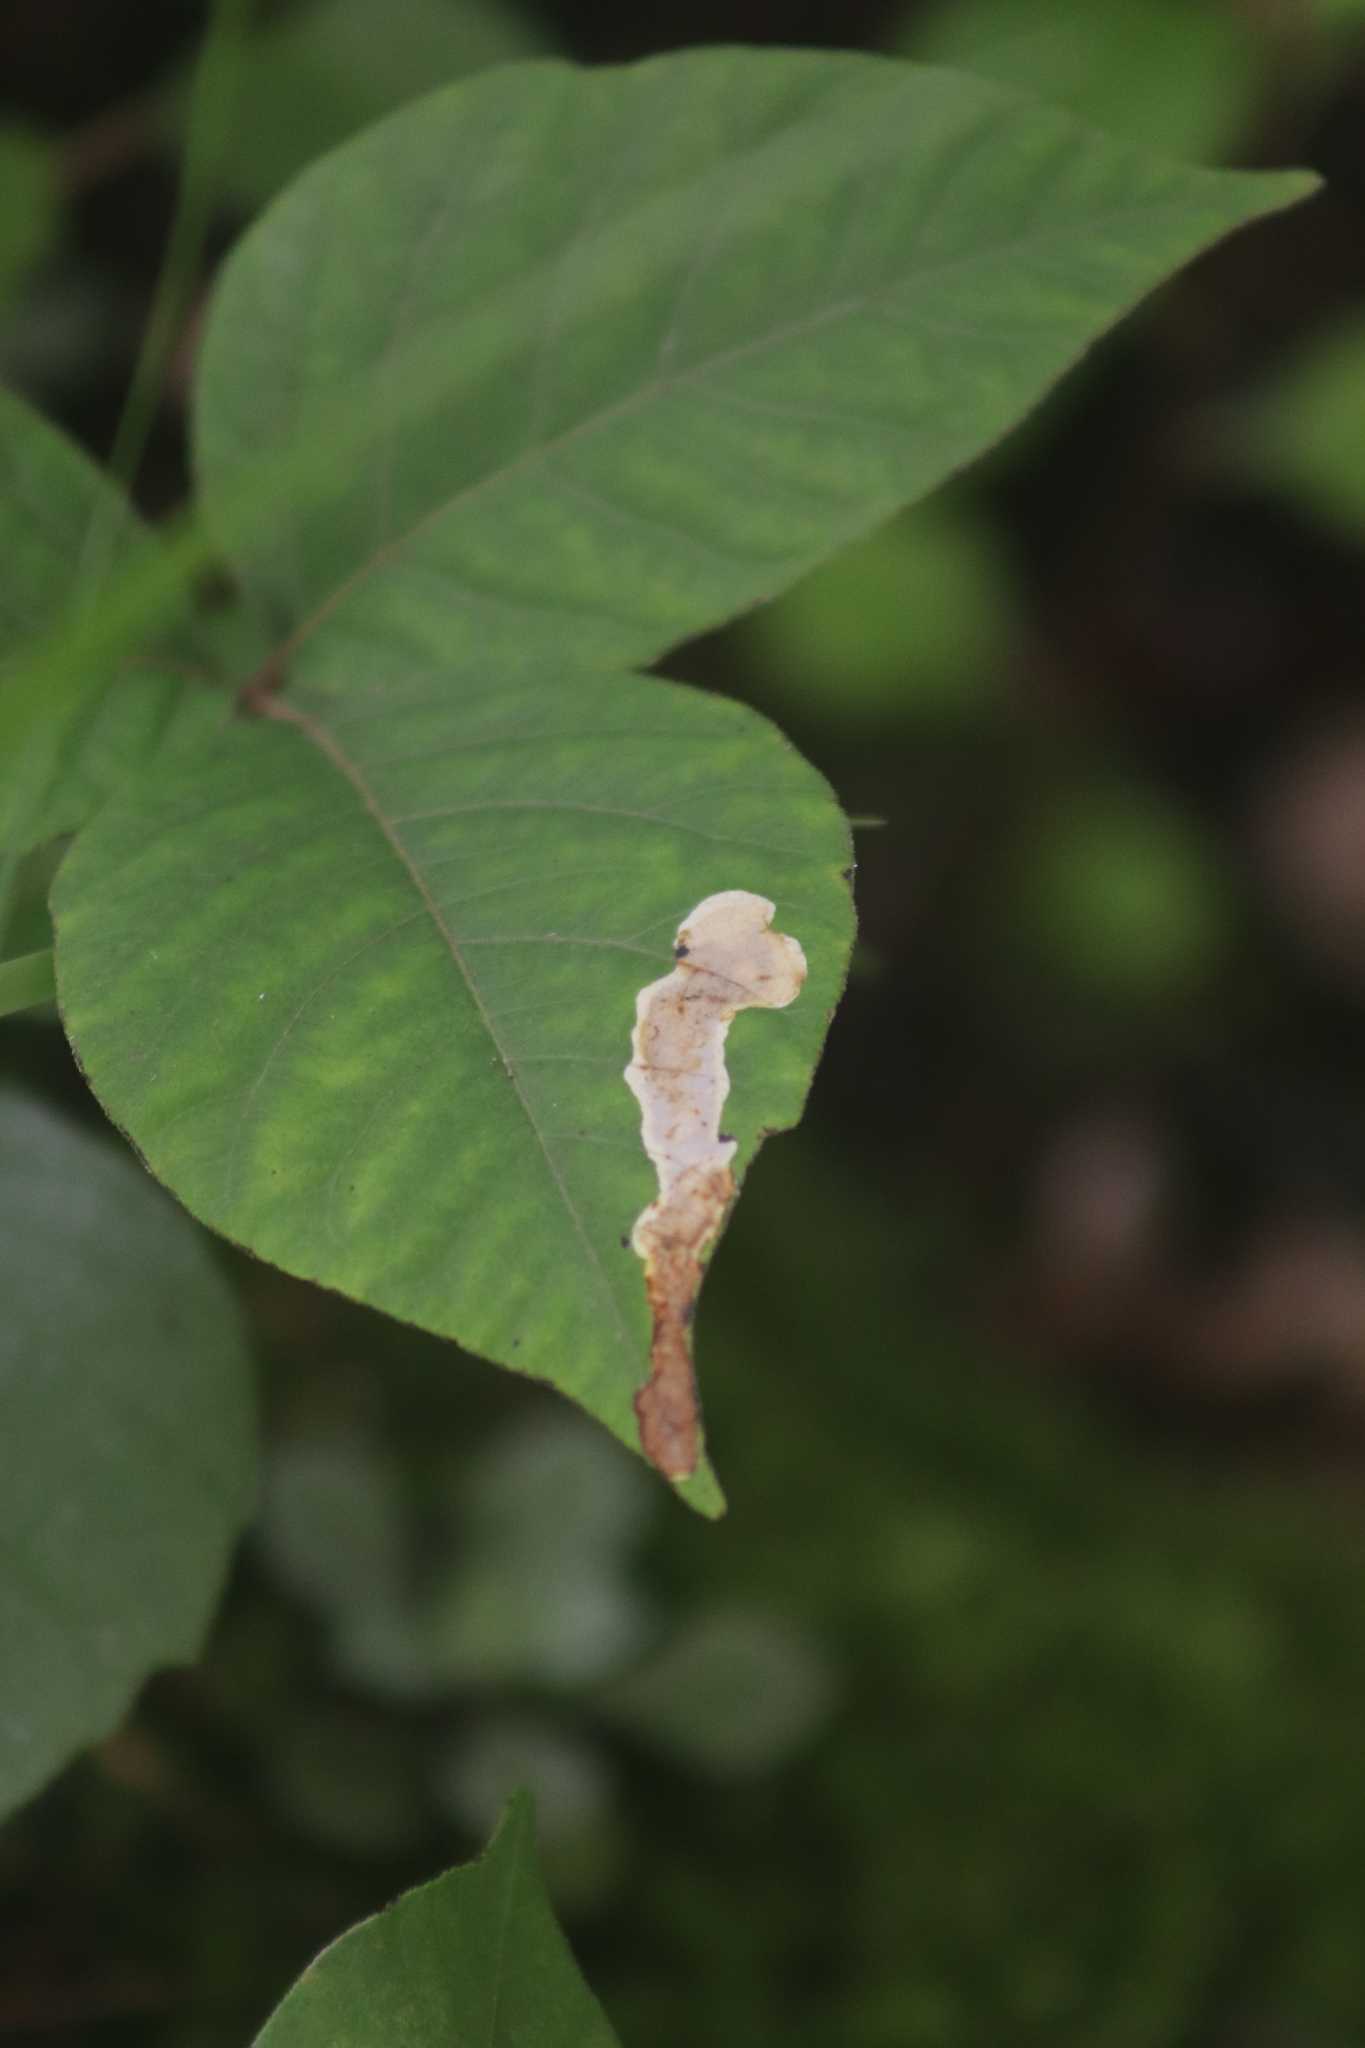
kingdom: Animalia
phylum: Arthropoda
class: Insecta
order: Lepidoptera
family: Gracillariidae
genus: Cameraria
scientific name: Cameraria guttifinitella
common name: Poison ivy leaf-miner moth
